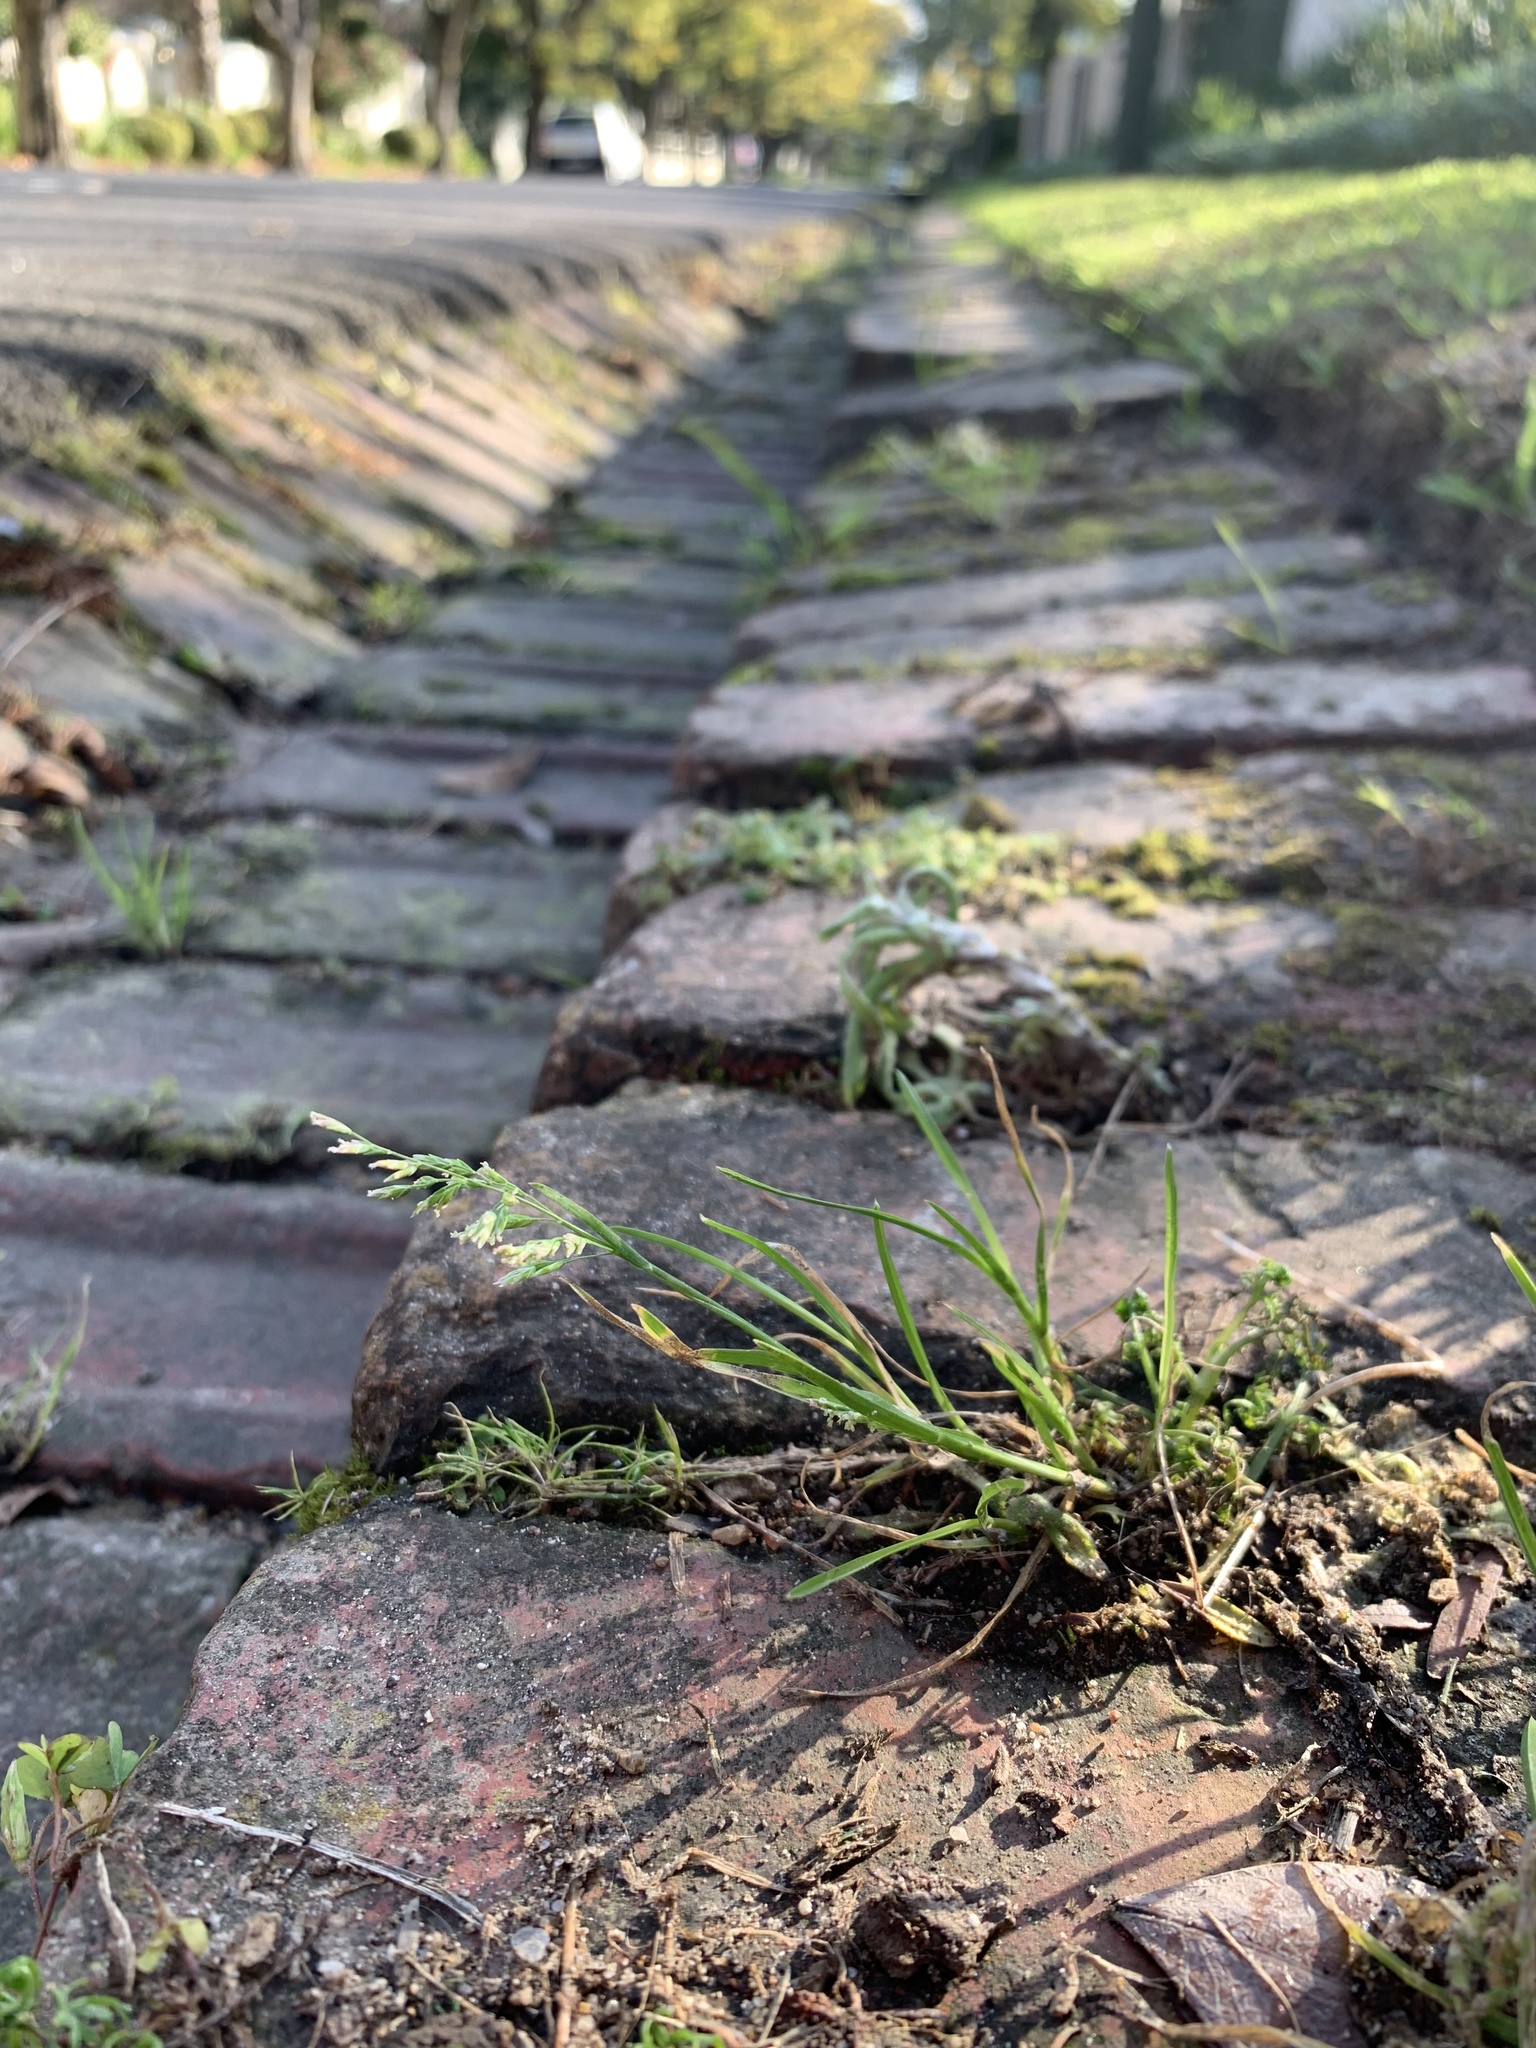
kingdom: Plantae
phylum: Tracheophyta
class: Liliopsida
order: Poales
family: Poaceae
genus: Poa
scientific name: Poa annua
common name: Annual bluegrass
